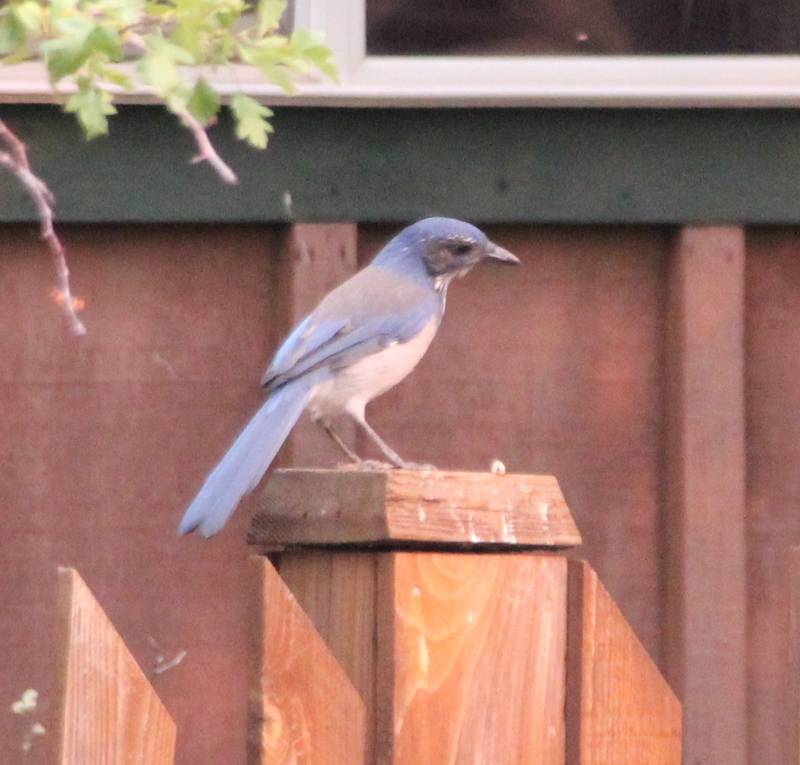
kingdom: Animalia
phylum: Chordata
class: Aves
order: Passeriformes
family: Corvidae
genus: Aphelocoma
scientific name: Aphelocoma californica
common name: California scrub-jay
